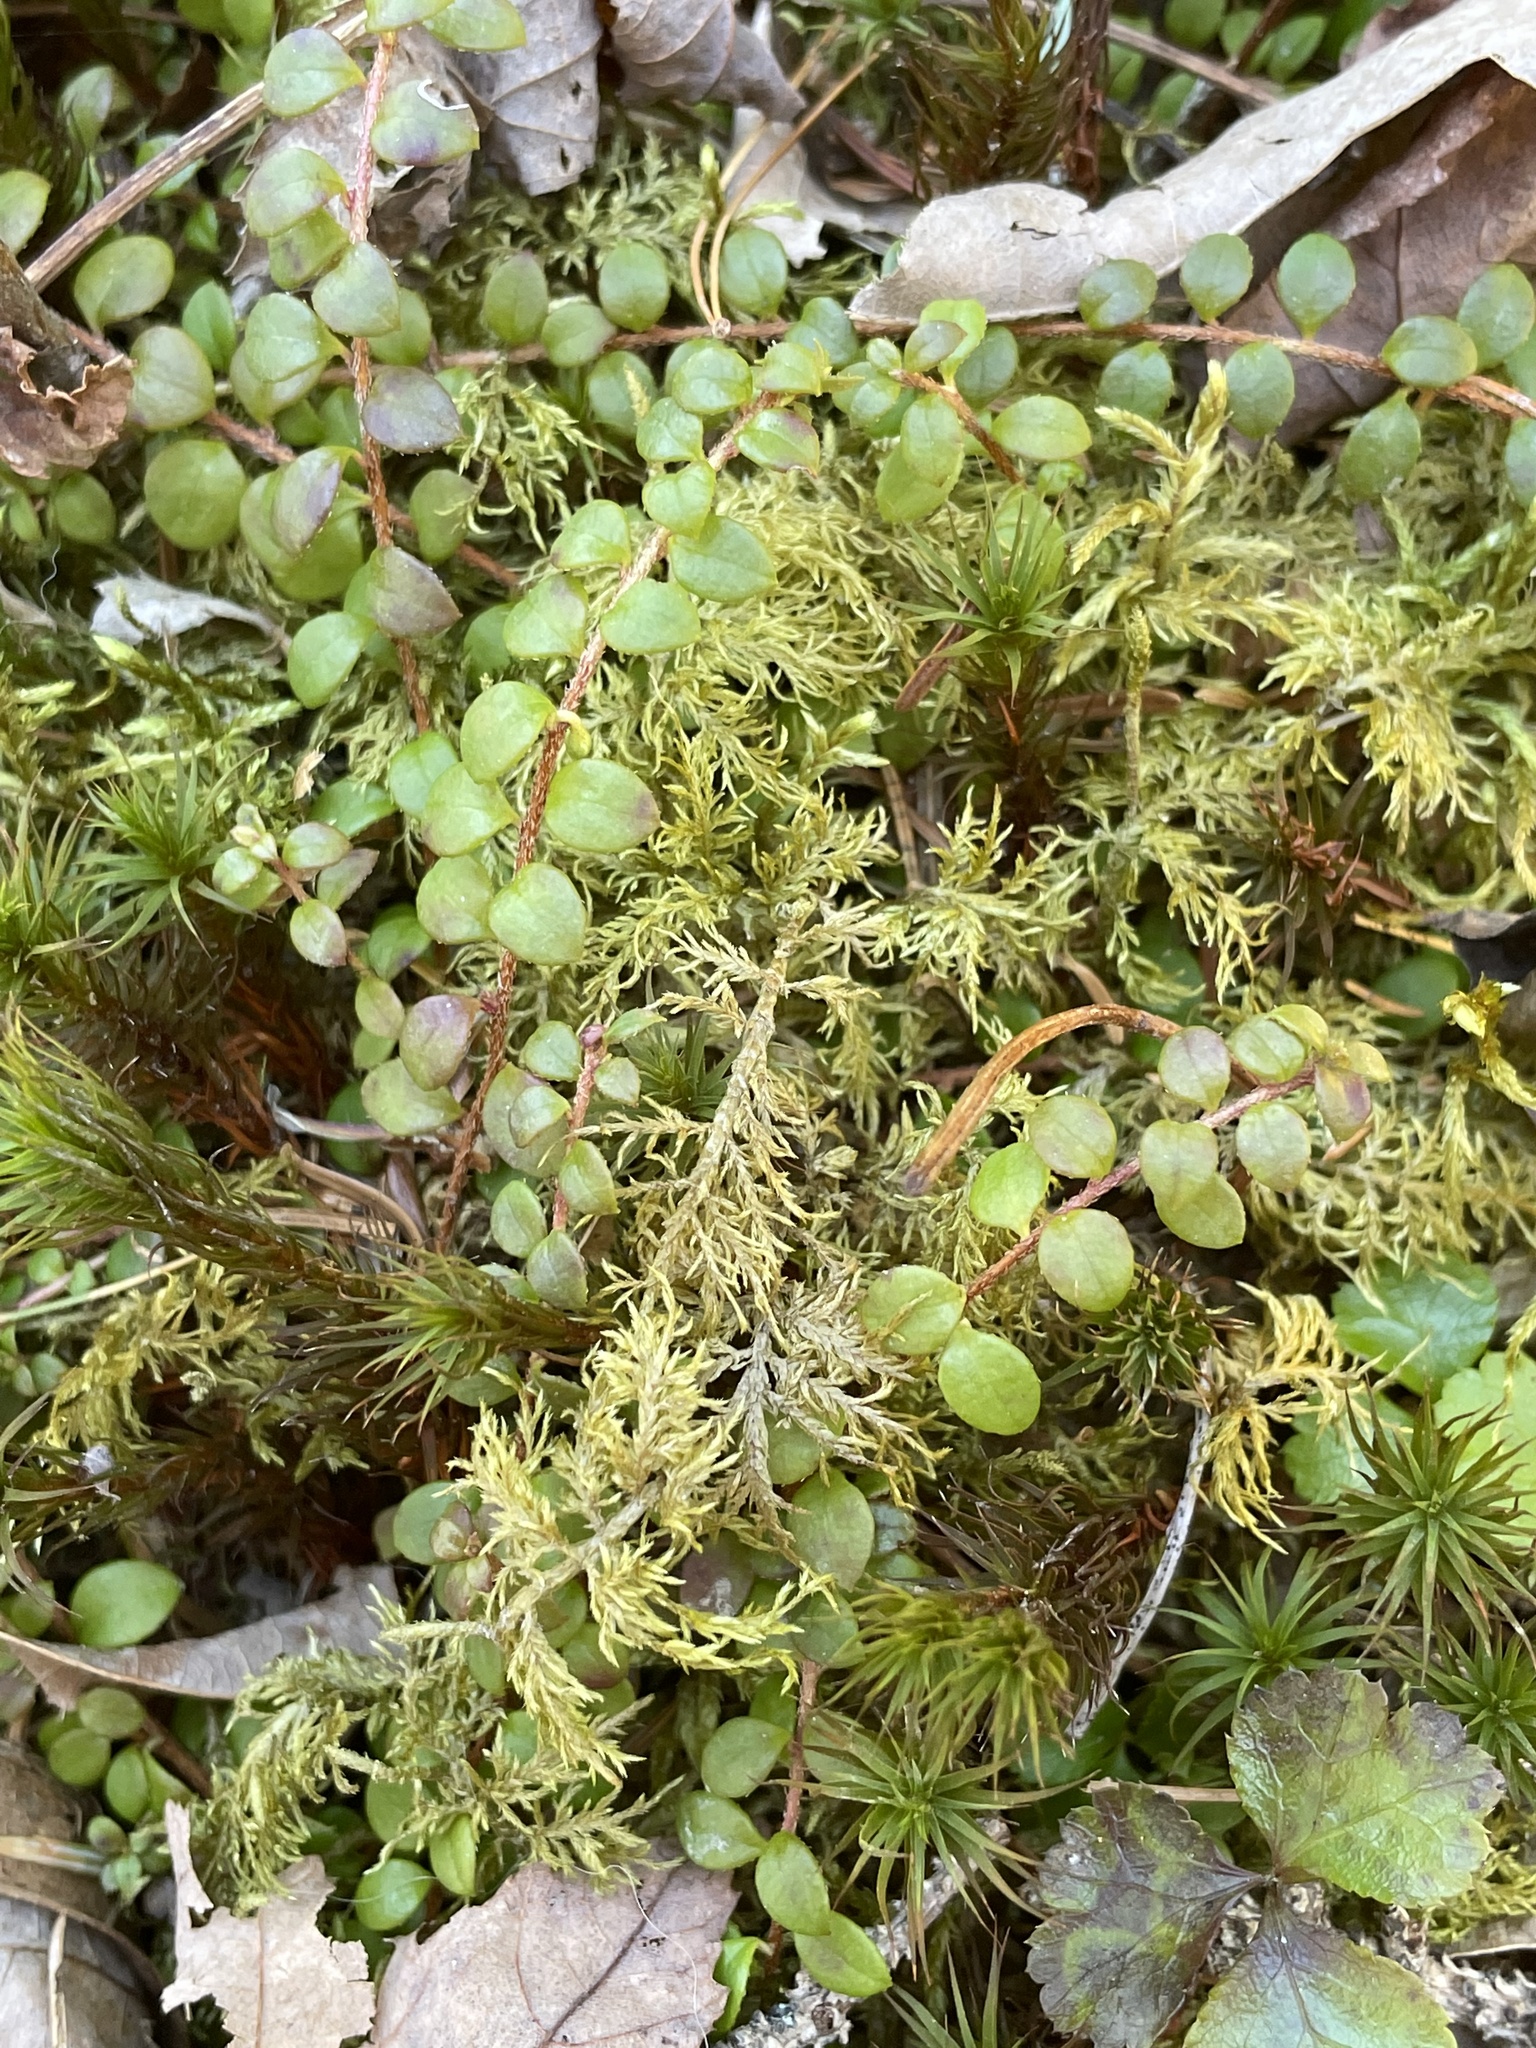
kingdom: Plantae
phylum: Tracheophyta
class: Magnoliopsida
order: Ericales
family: Ericaceae
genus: Gaultheria
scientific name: Gaultheria hispidula
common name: Cancer wintergreen
